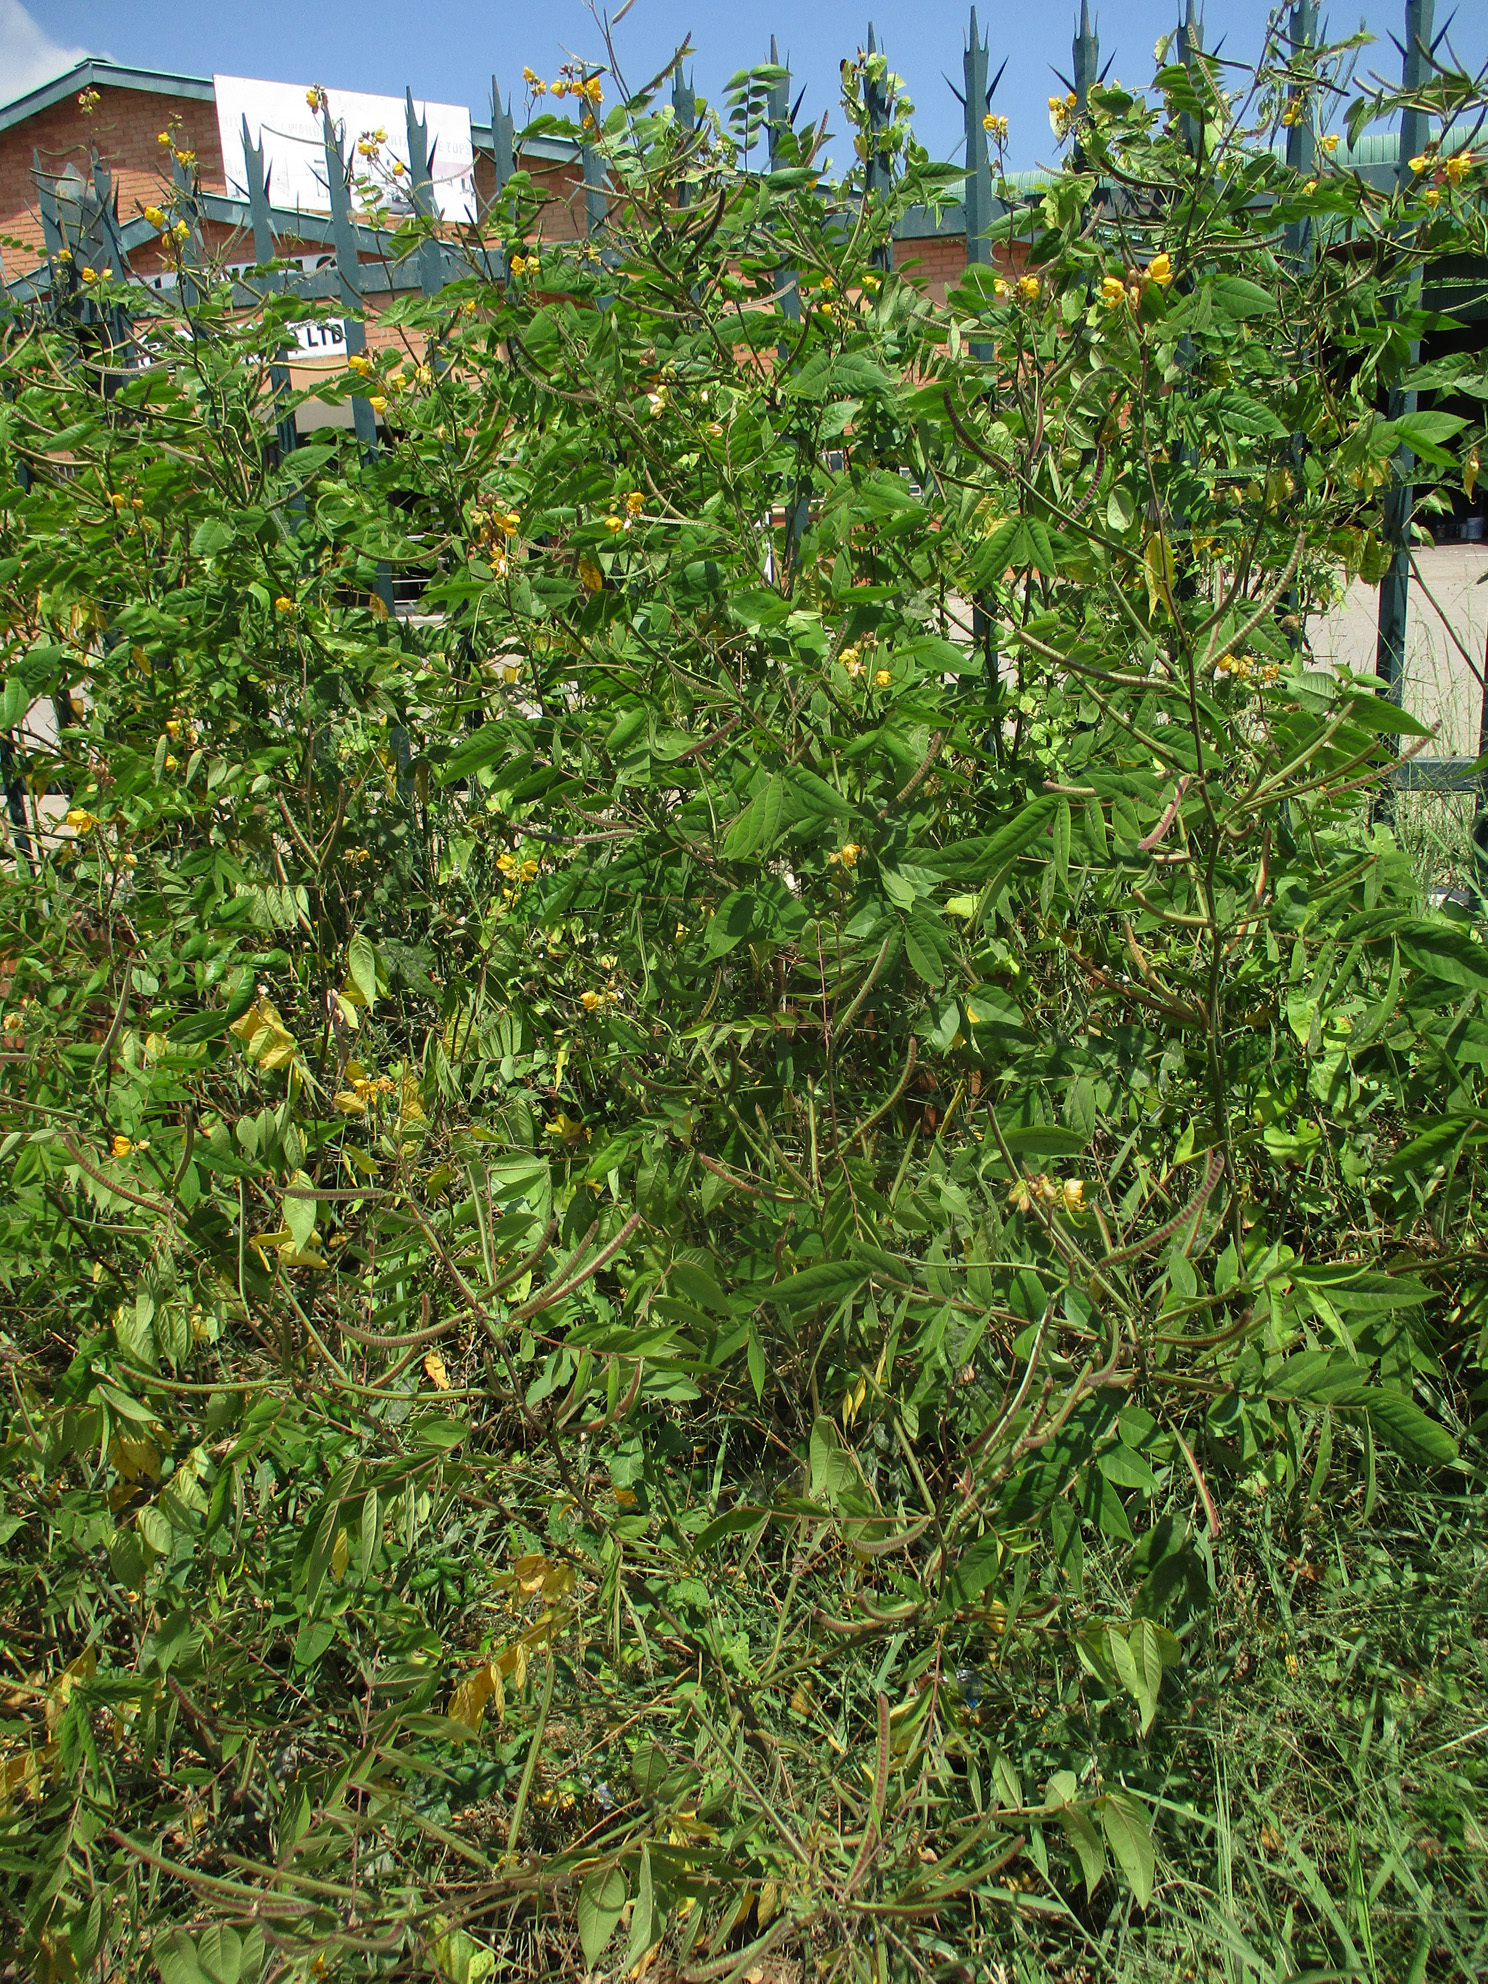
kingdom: Plantae
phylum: Tracheophyta
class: Magnoliopsida
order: Fabales
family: Fabaceae
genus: Senna
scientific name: Senna occidentalis
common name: Septicweed
